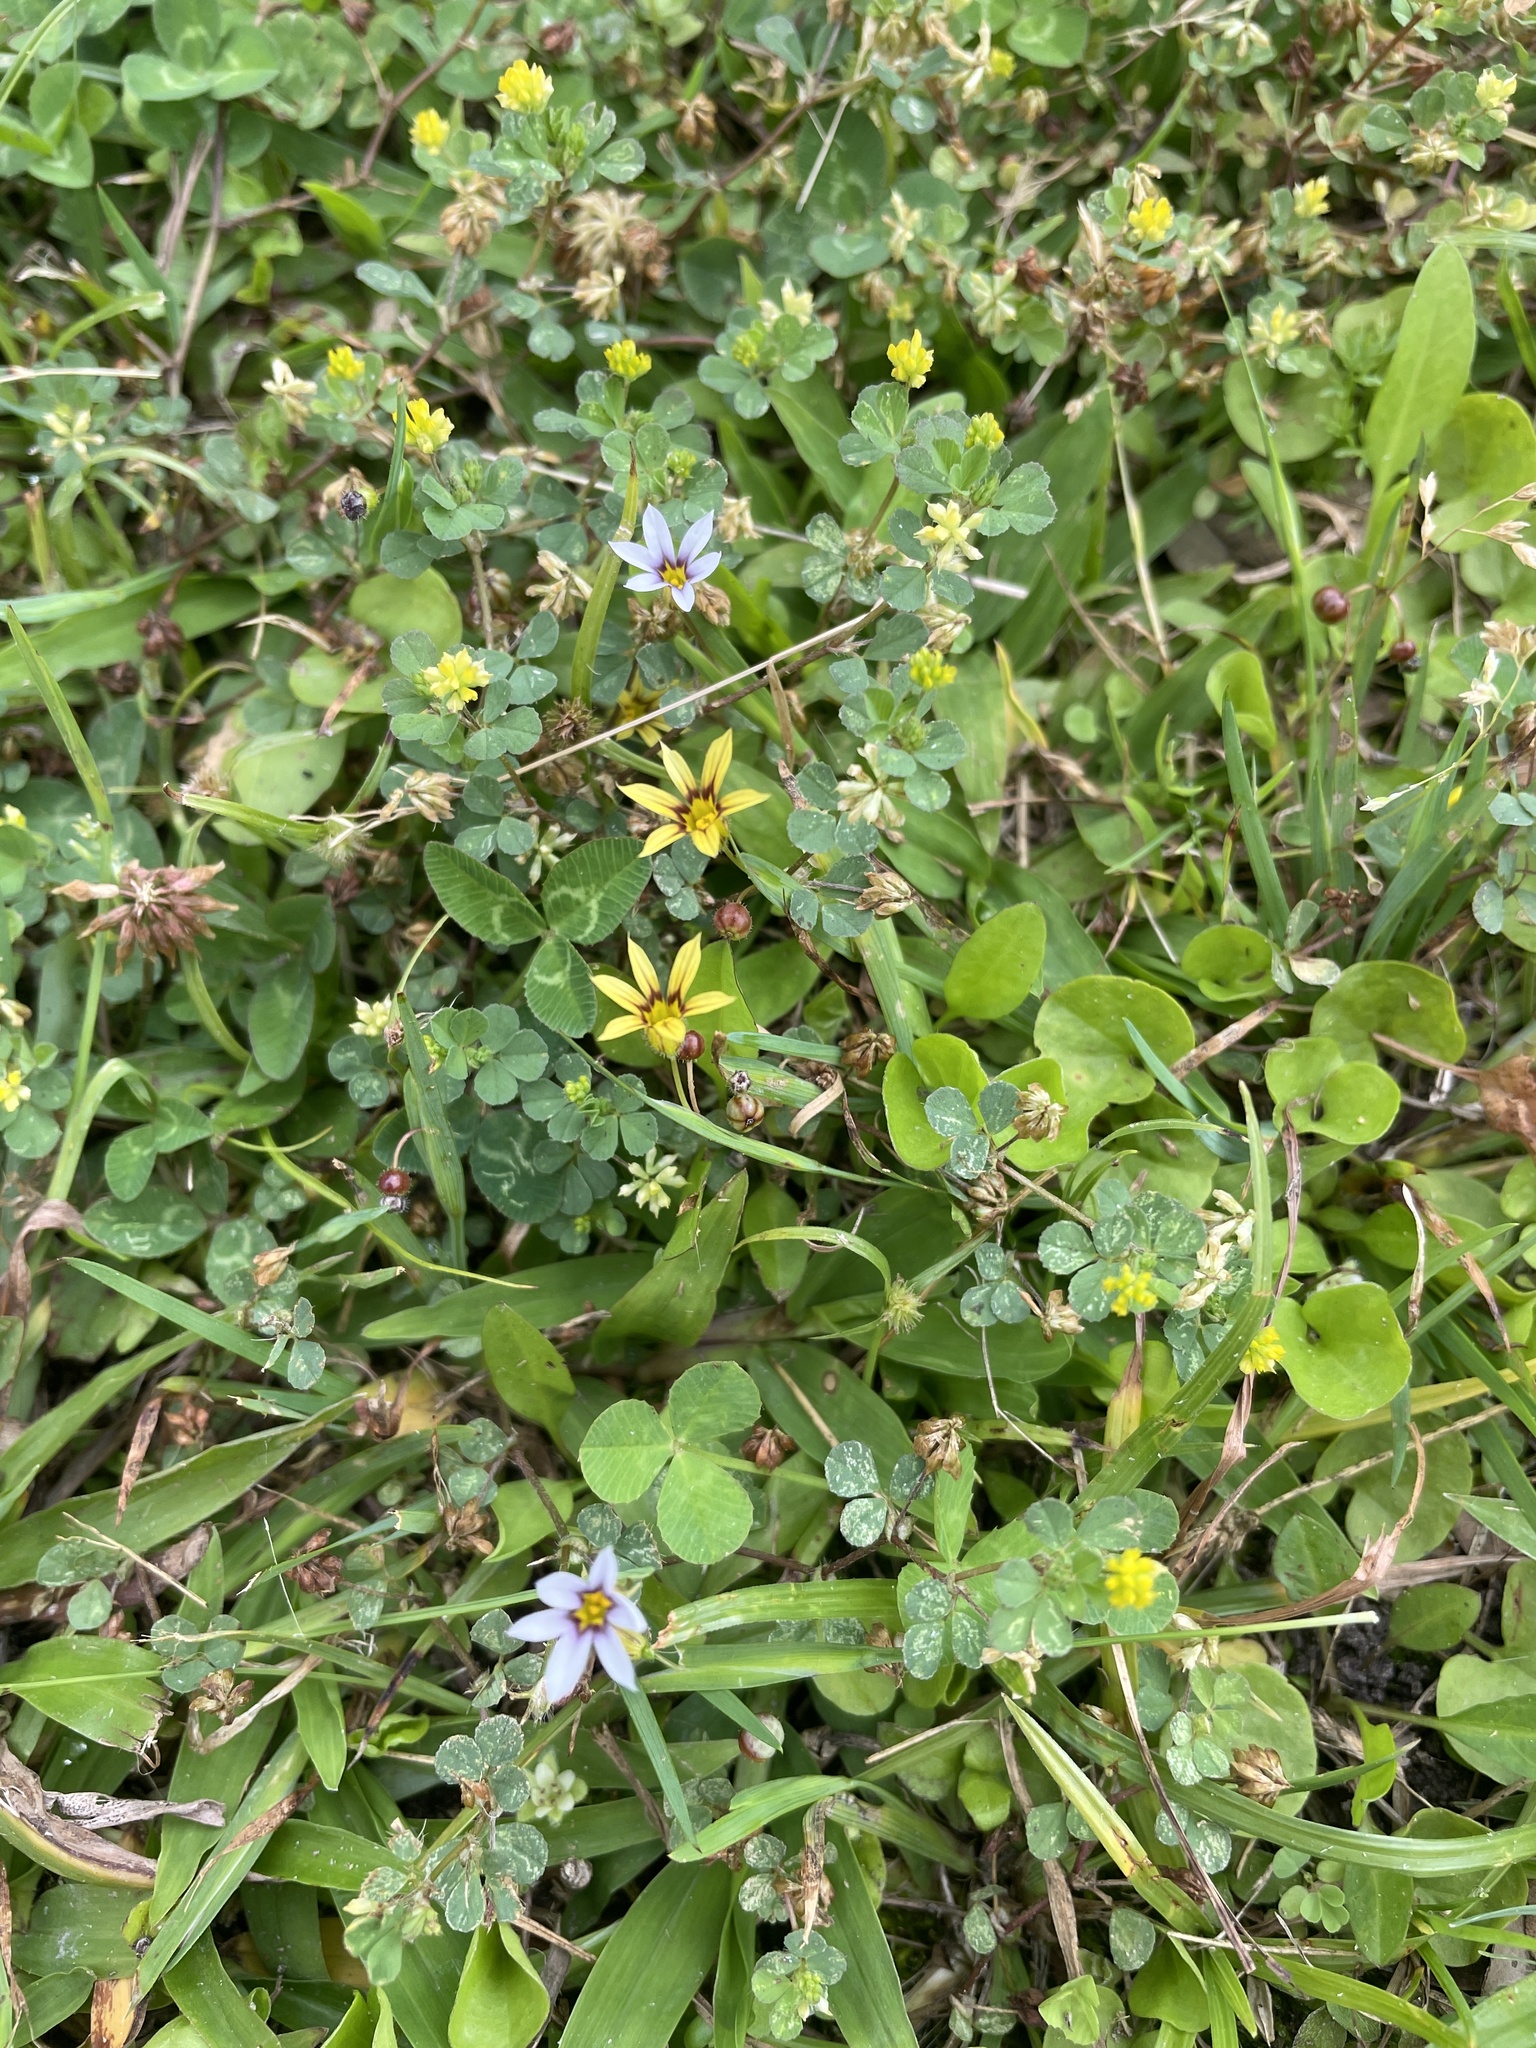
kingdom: Plantae
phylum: Tracheophyta
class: Liliopsida
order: Asparagales
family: Iridaceae
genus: Sisyrinchium
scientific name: Sisyrinchium micranthum
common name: Bermuda pigroot
